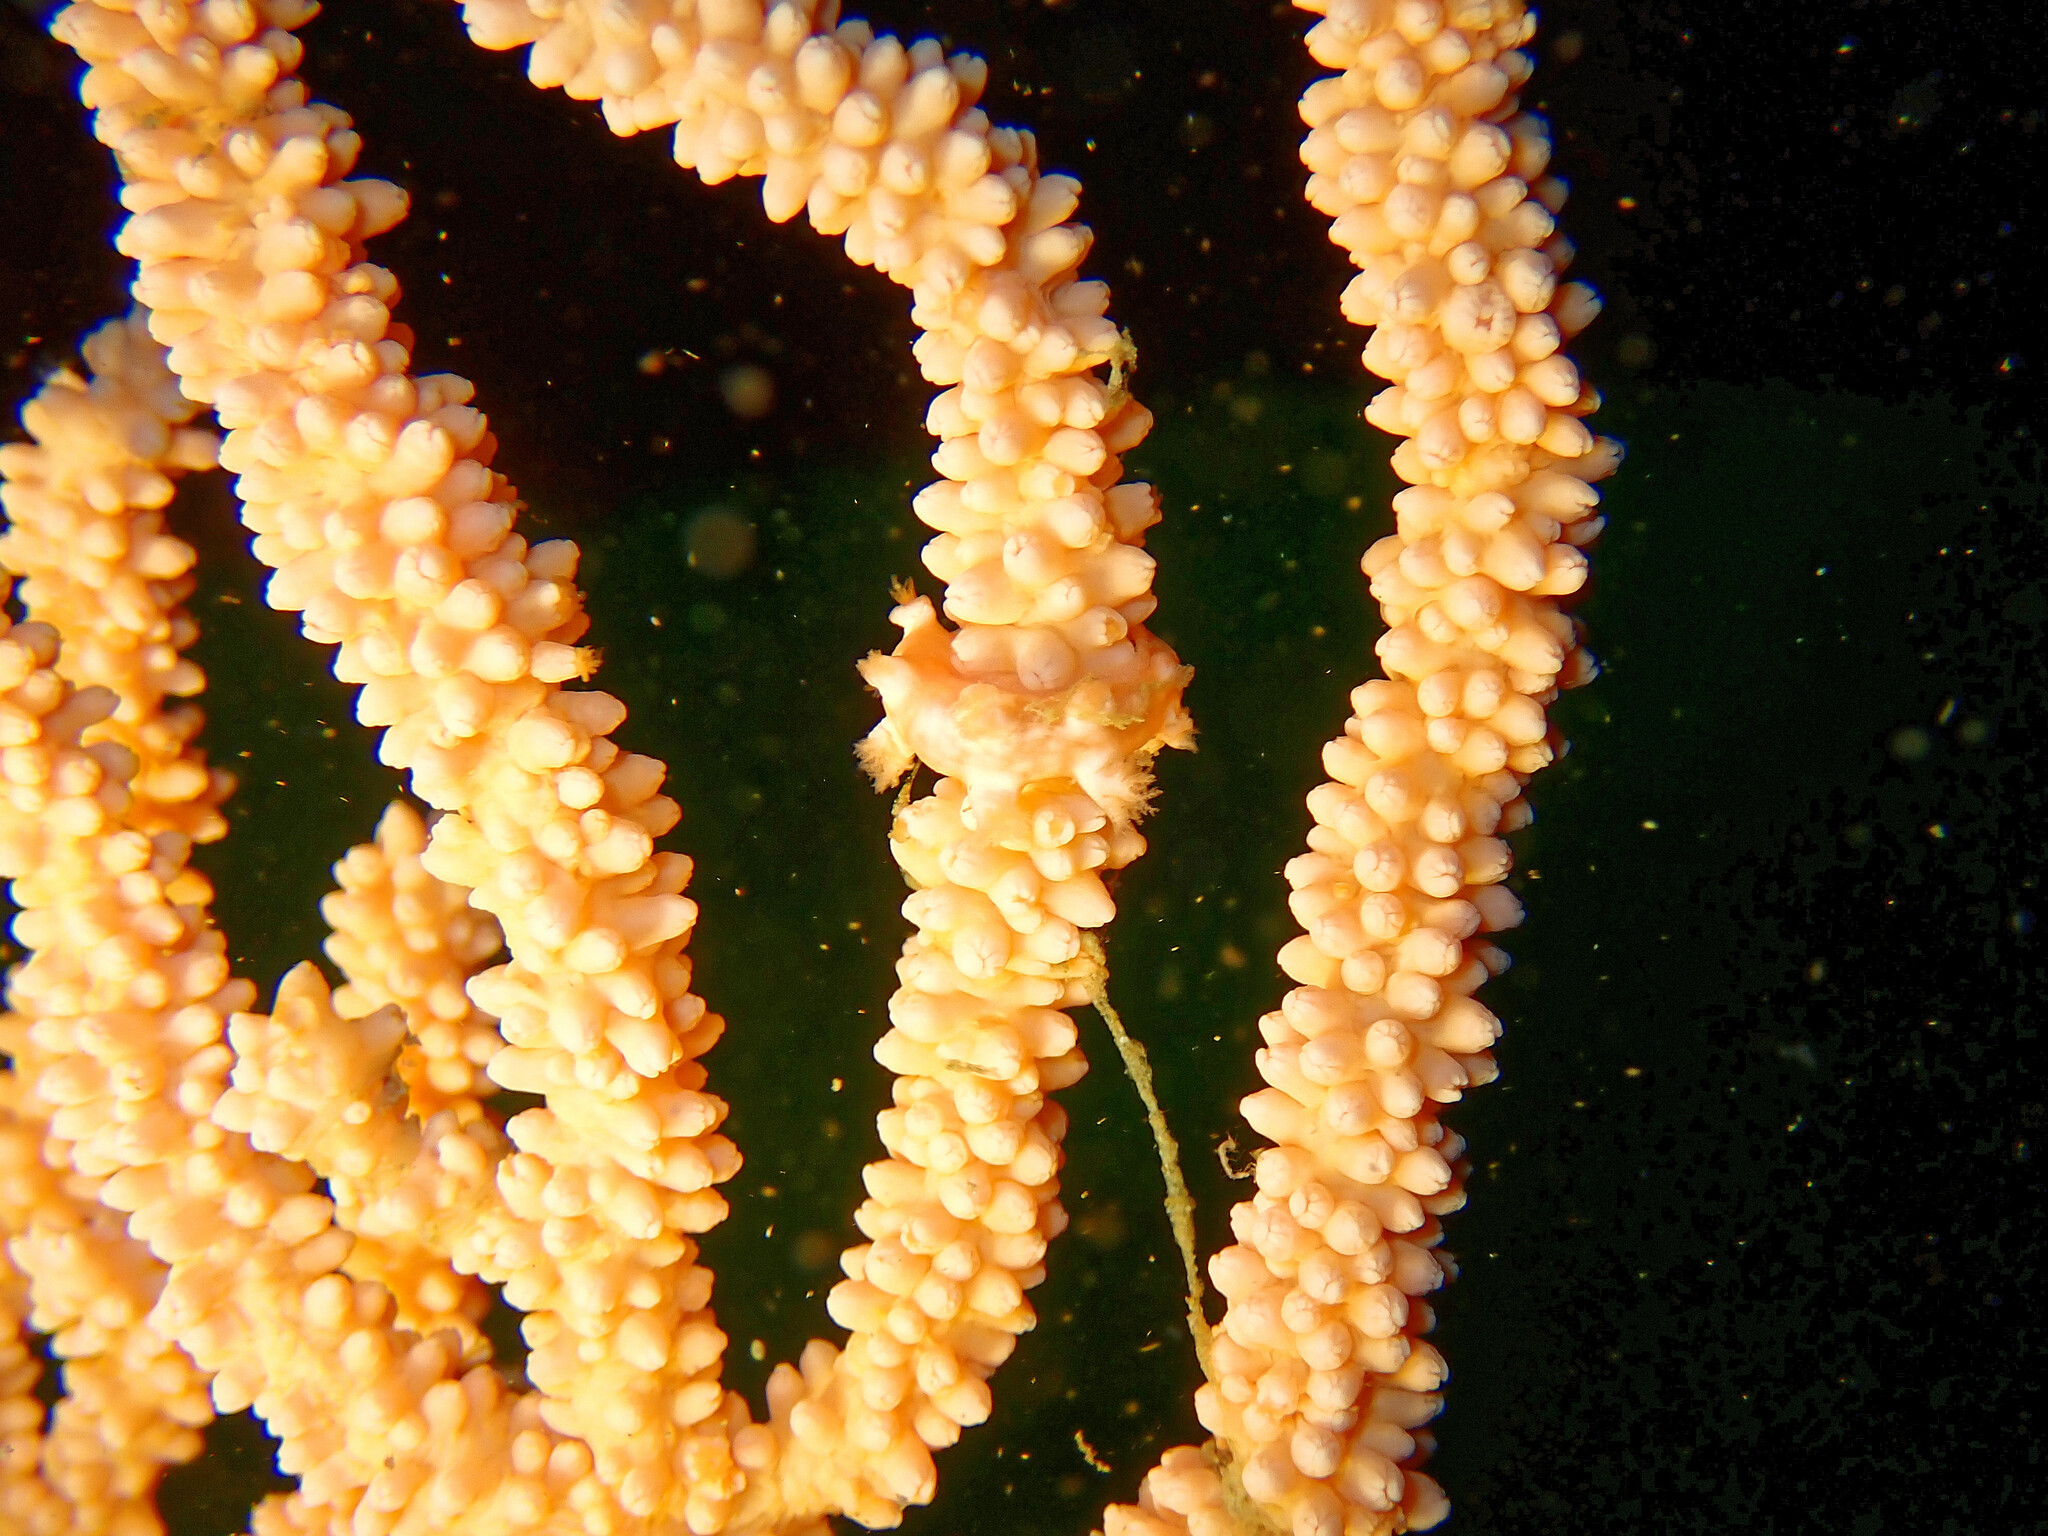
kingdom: Animalia
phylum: Mollusca
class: Gastropoda
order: Nudibranchia
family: Tritoniidae
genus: Duvaucelia
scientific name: Duvaucelia odhneri
